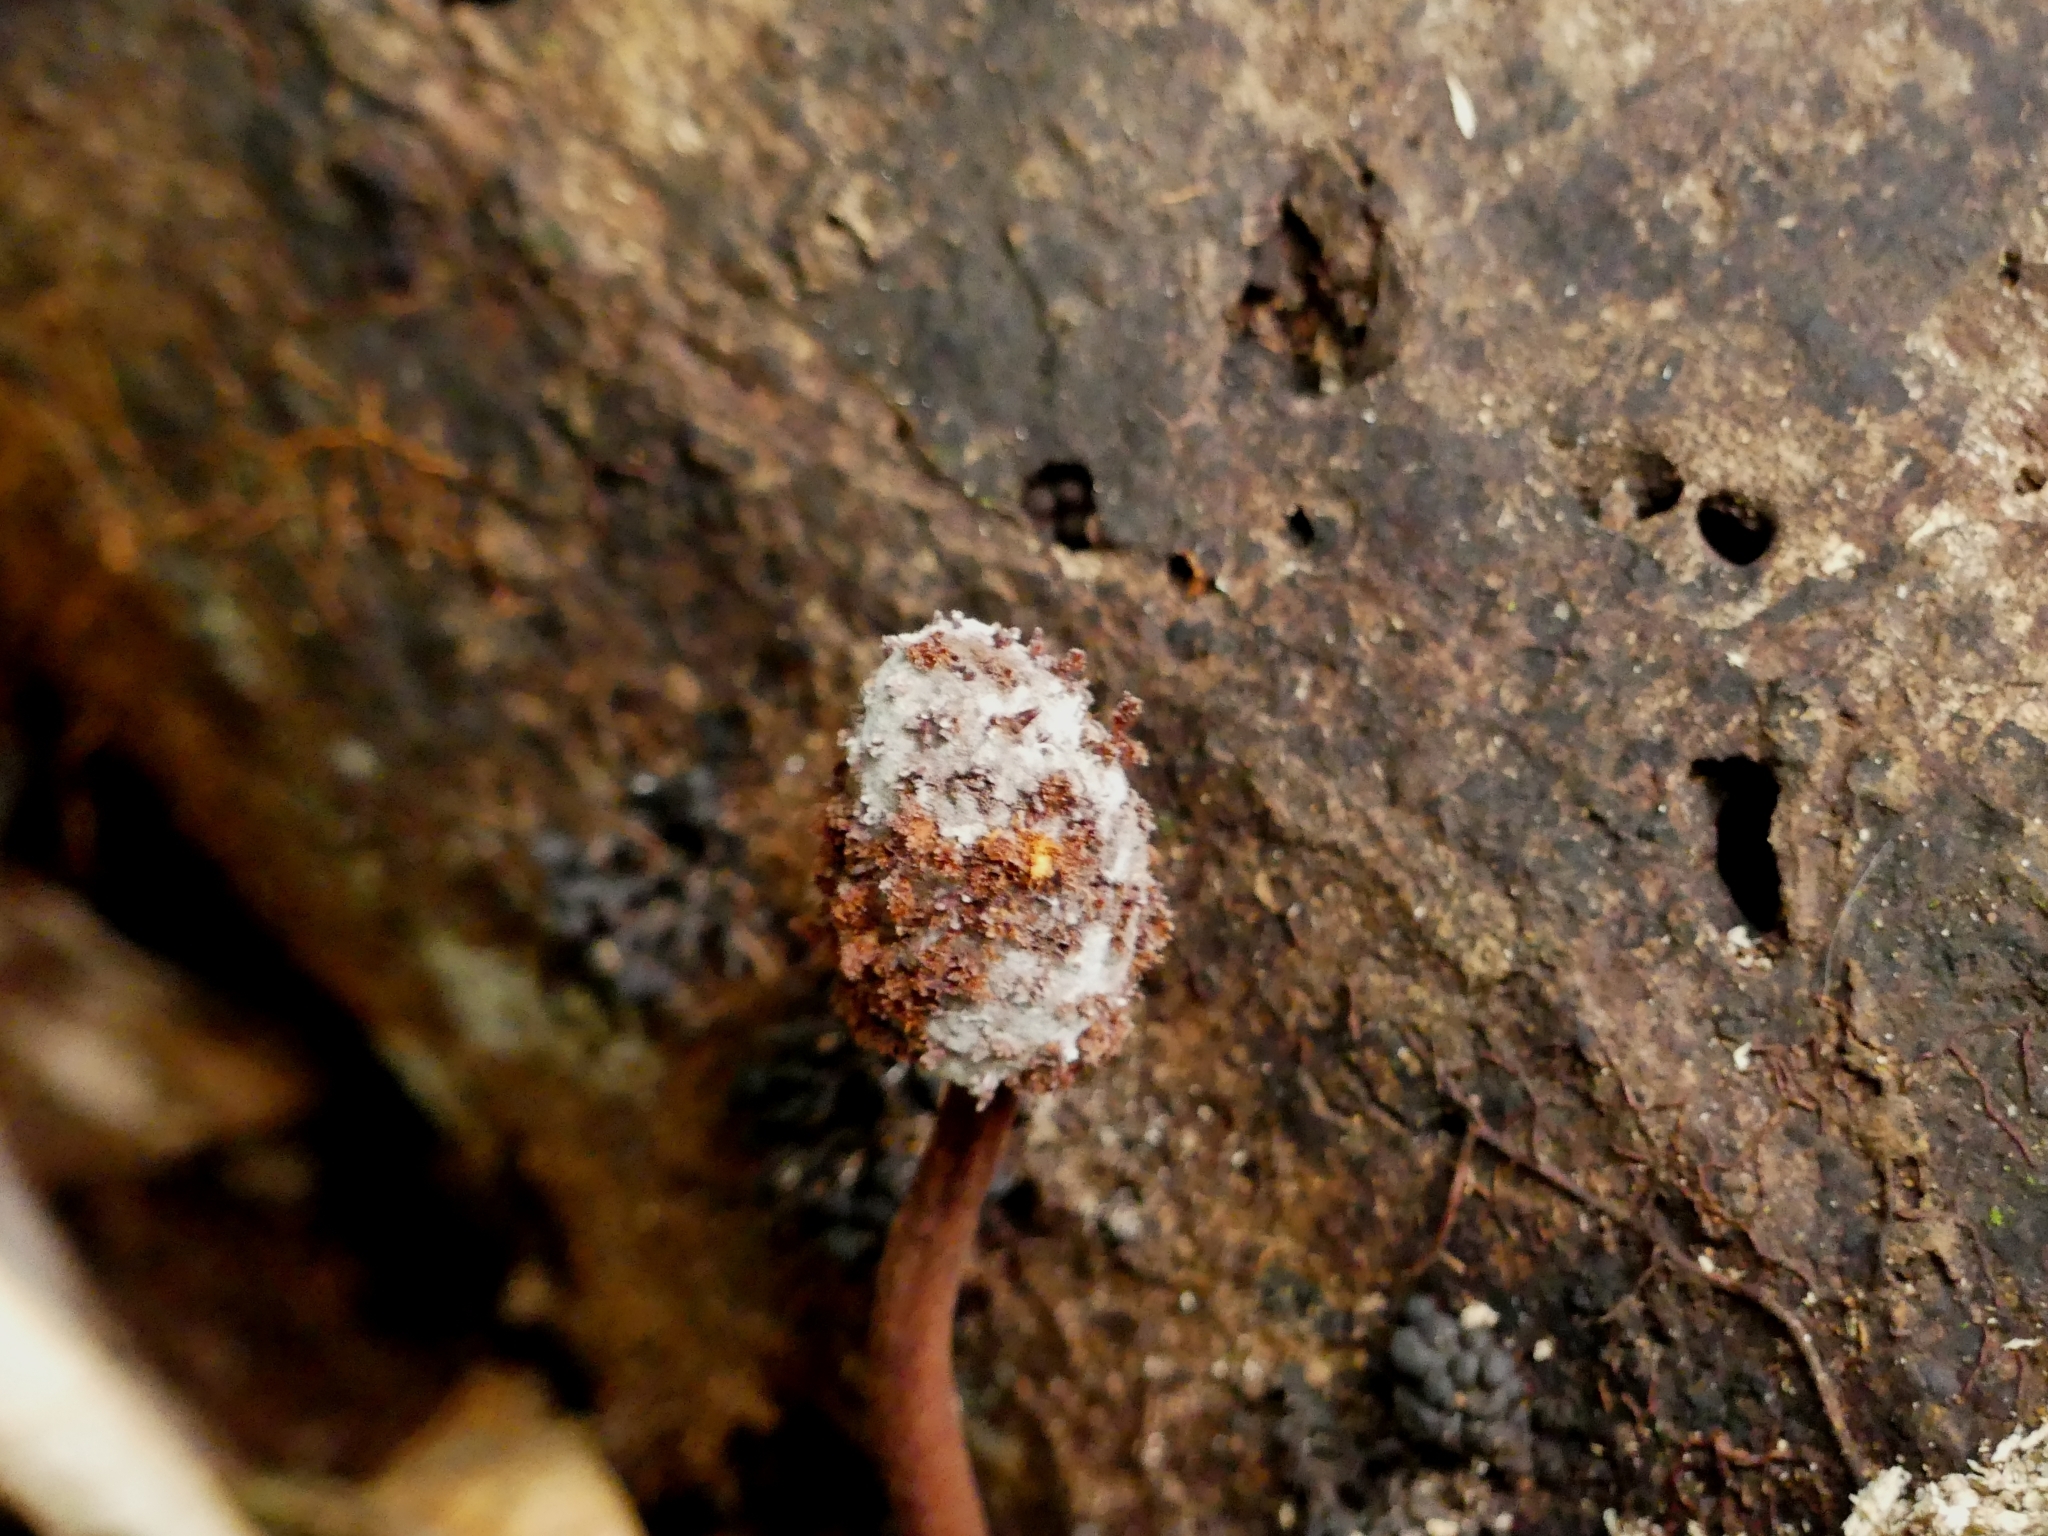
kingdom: Plantae
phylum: Tracheophyta
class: Magnoliopsida
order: Santalales
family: Balanophoraceae
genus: Helosis
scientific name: Helosis cayennensis
